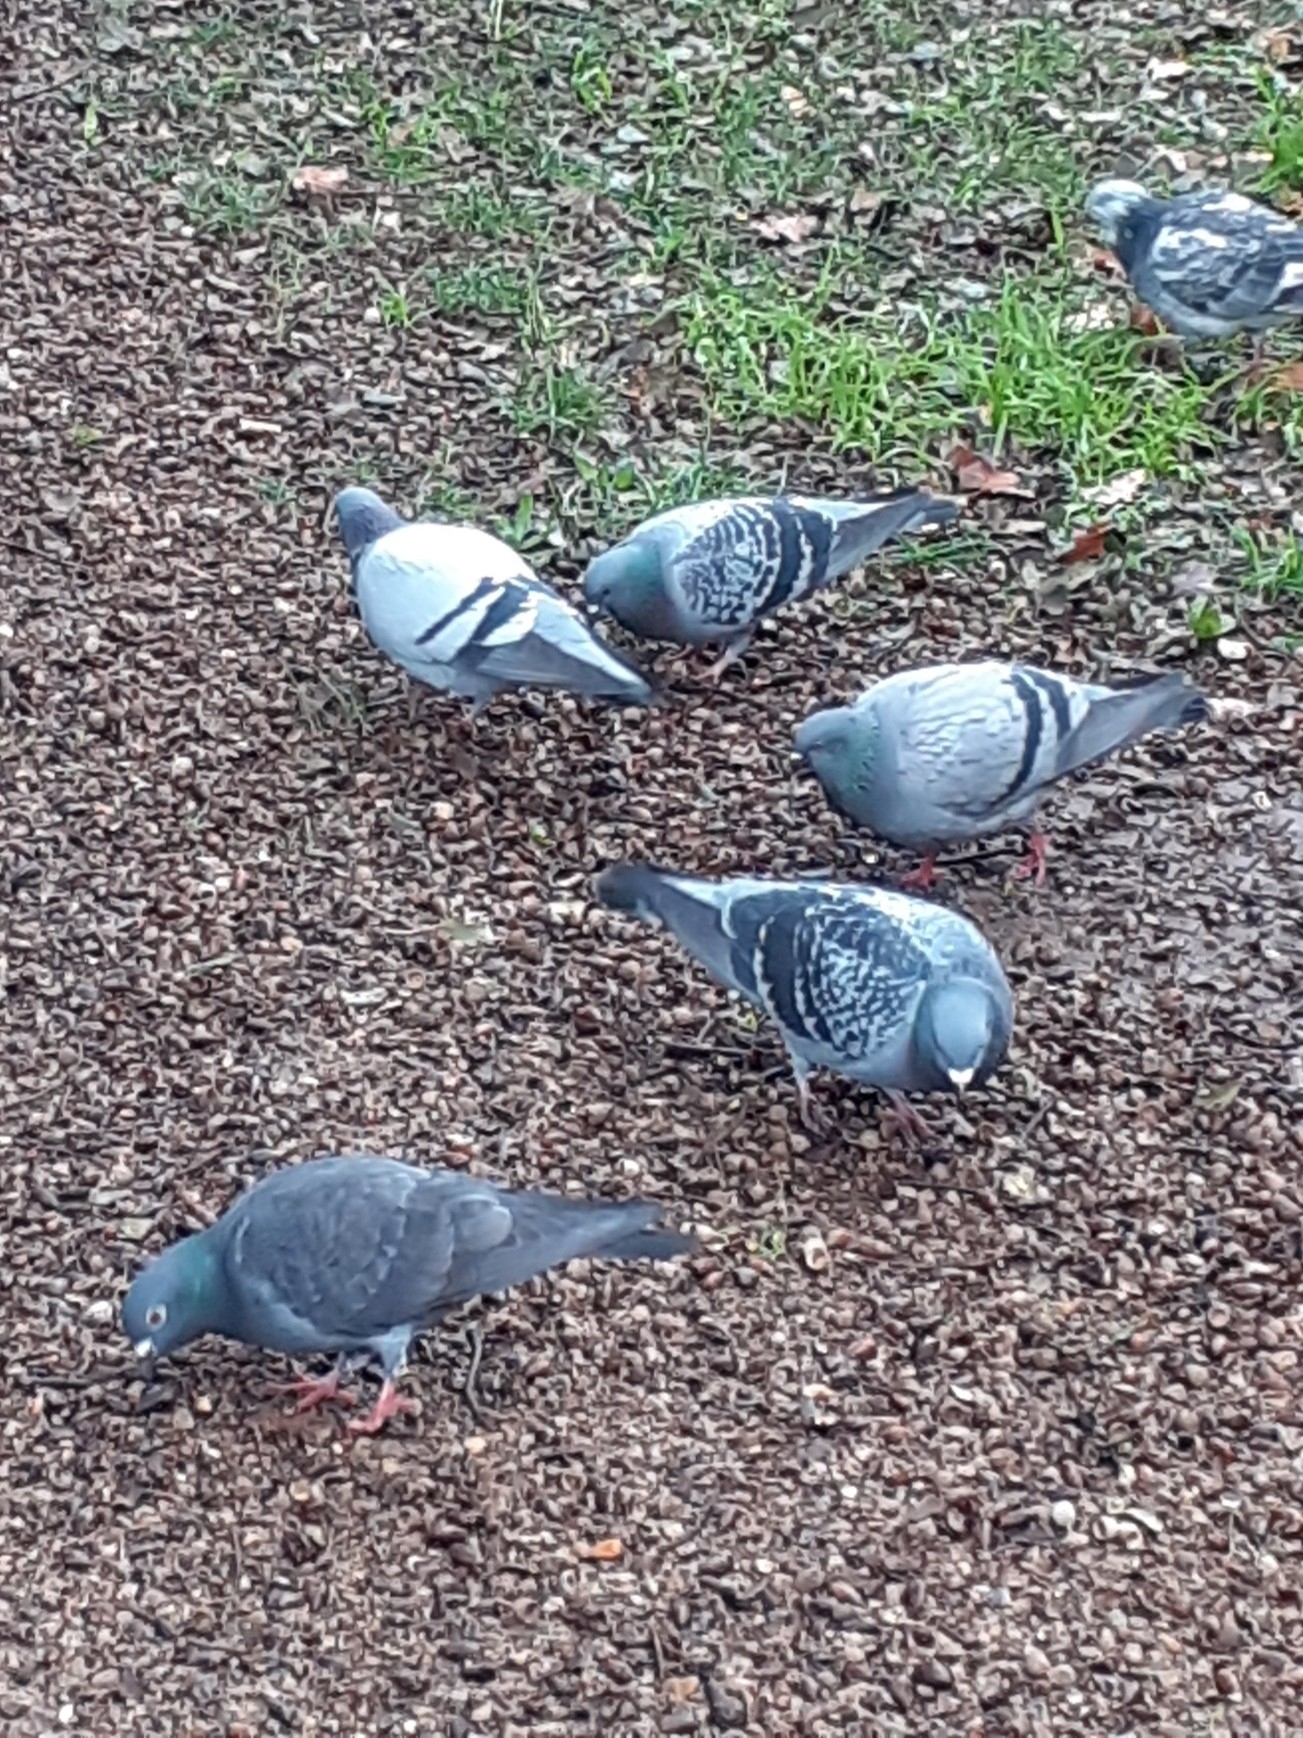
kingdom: Animalia
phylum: Chordata
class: Aves
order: Columbiformes
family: Columbidae
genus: Columba
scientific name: Columba livia
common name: Rock pigeon
